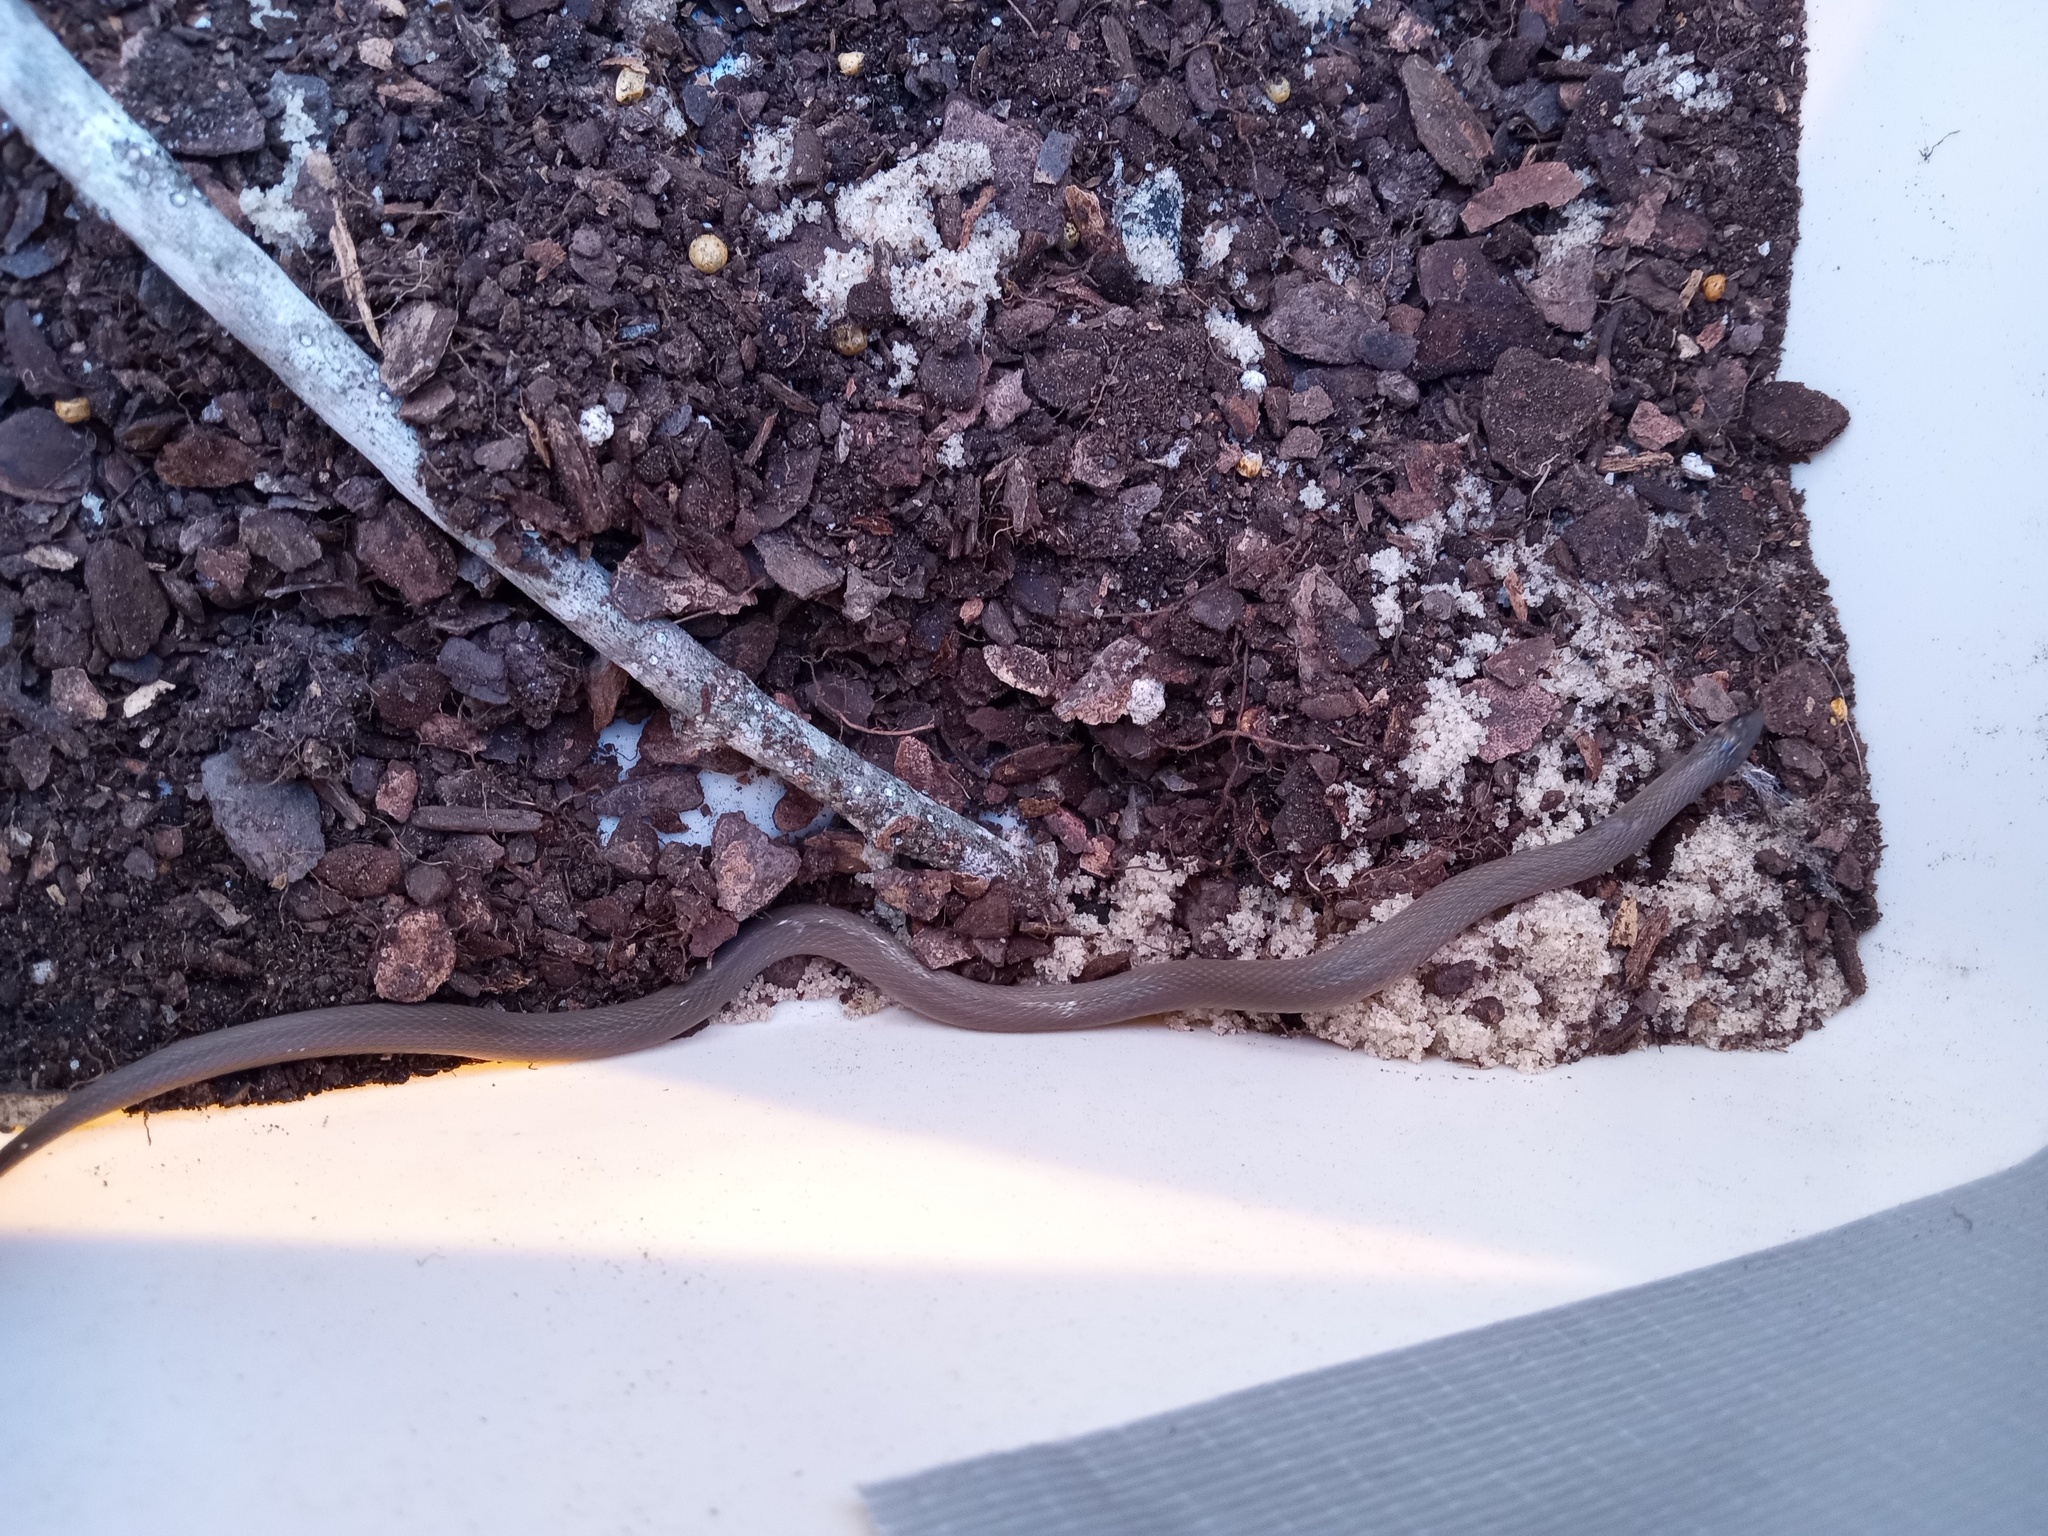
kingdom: Animalia
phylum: Chordata
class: Squamata
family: Colubridae
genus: Haldea
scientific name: Haldea striatula
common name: Rough earth snake
